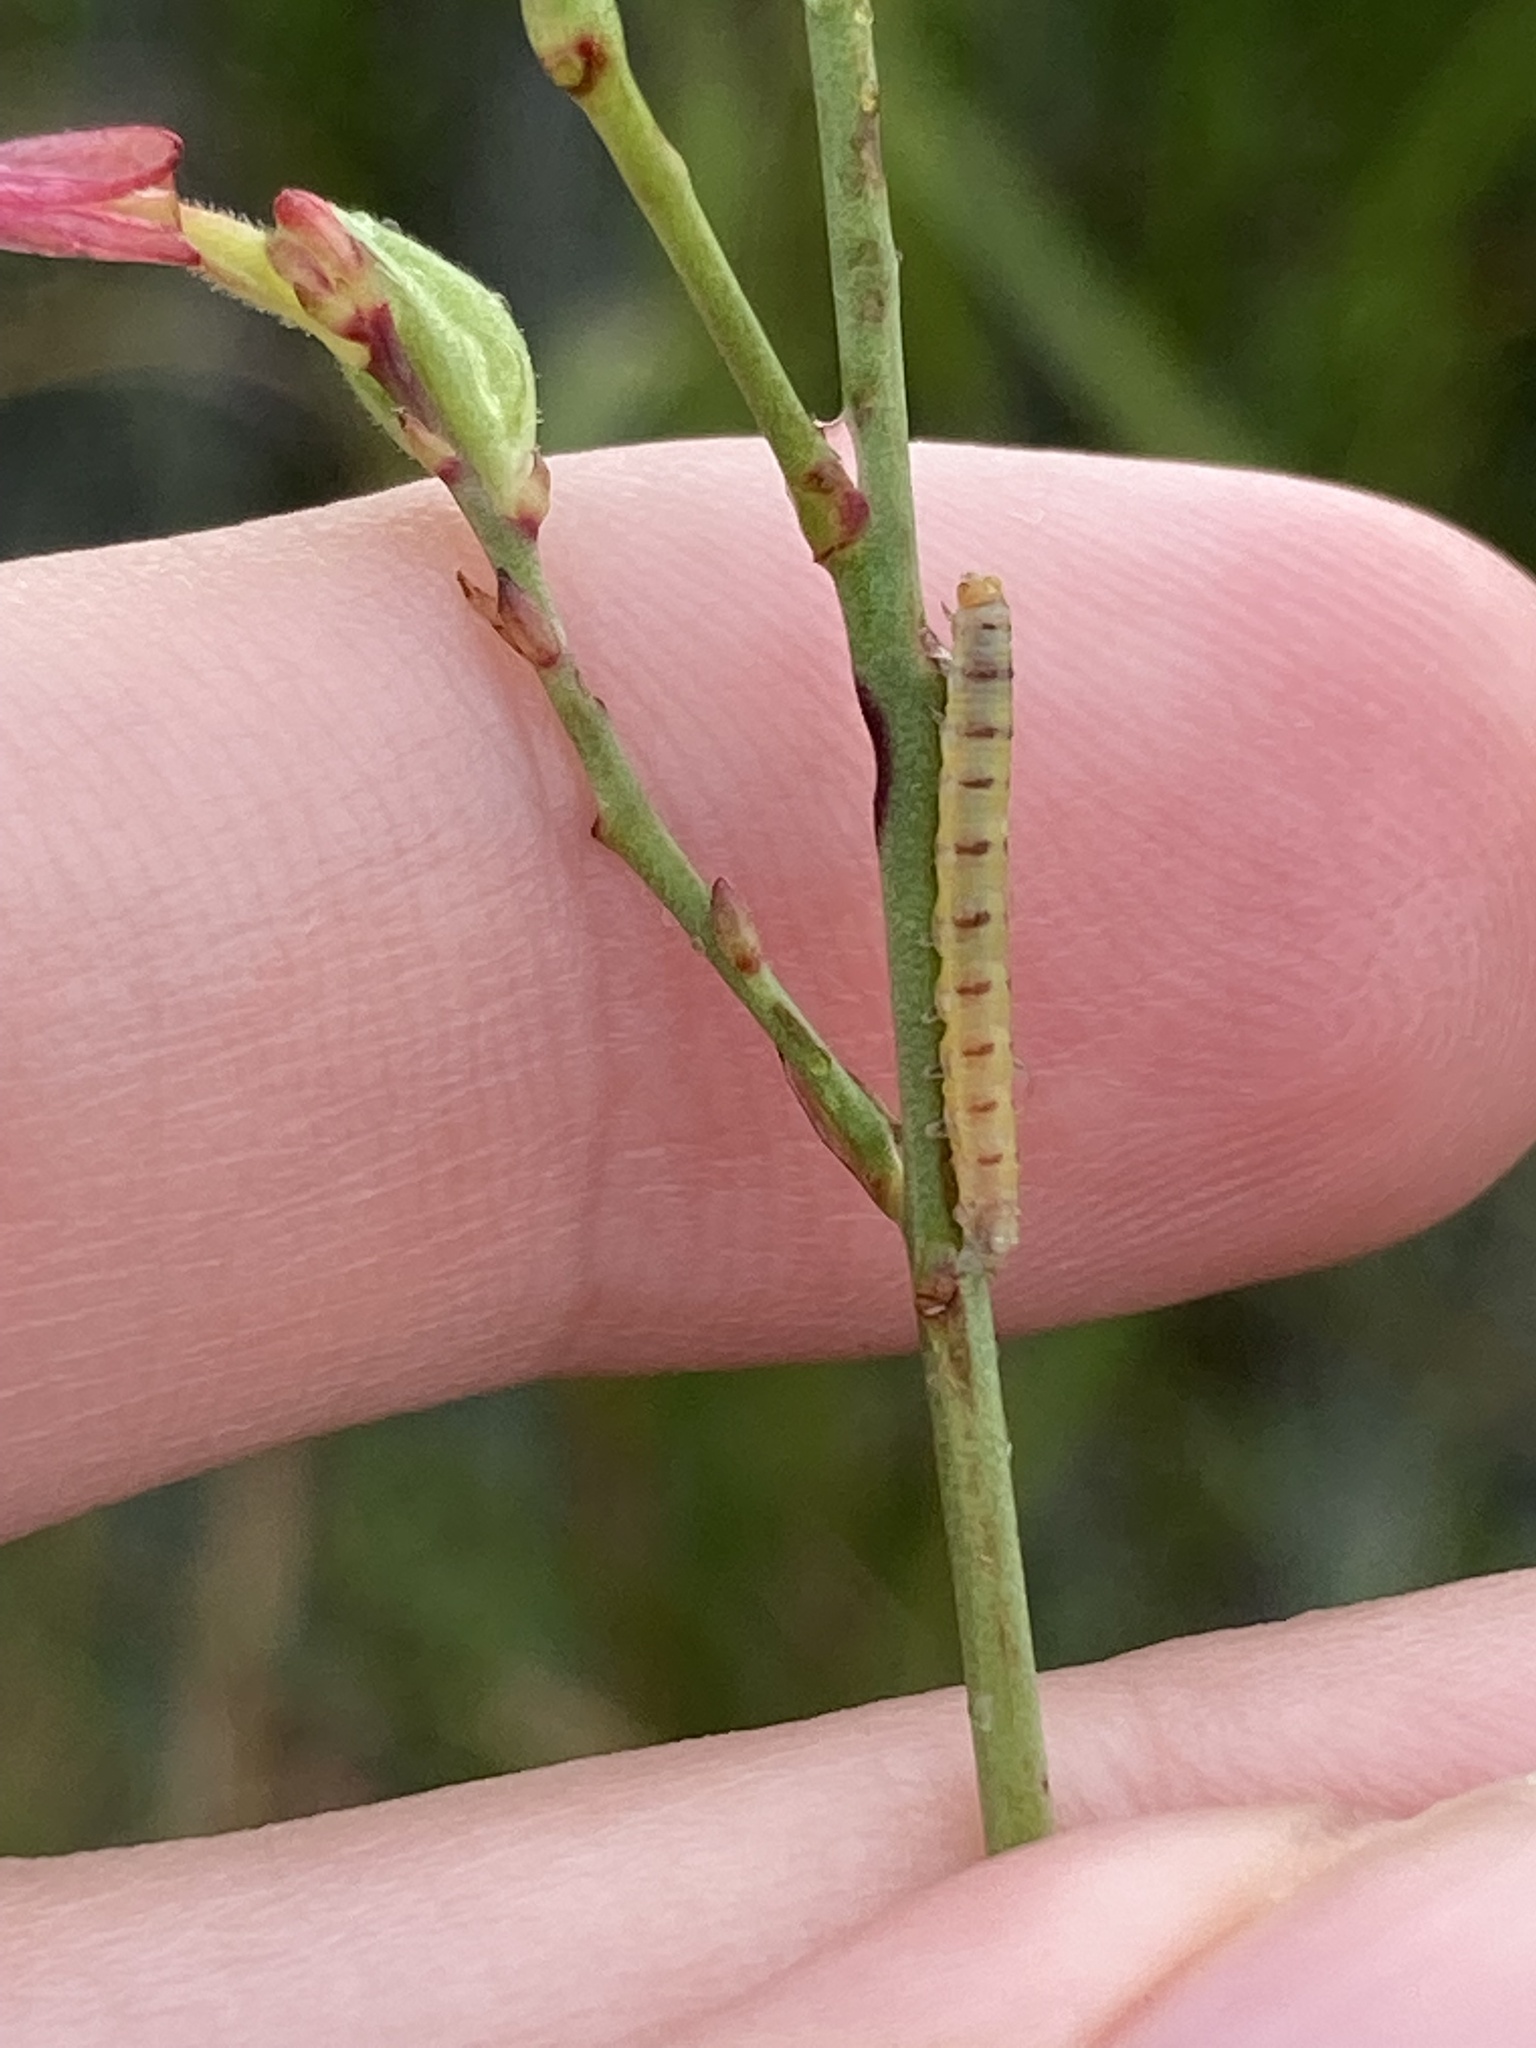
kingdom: Animalia
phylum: Arthropoda
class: Insecta
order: Lepidoptera
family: Noctuidae
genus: Schinia
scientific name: Schinia gaurae
